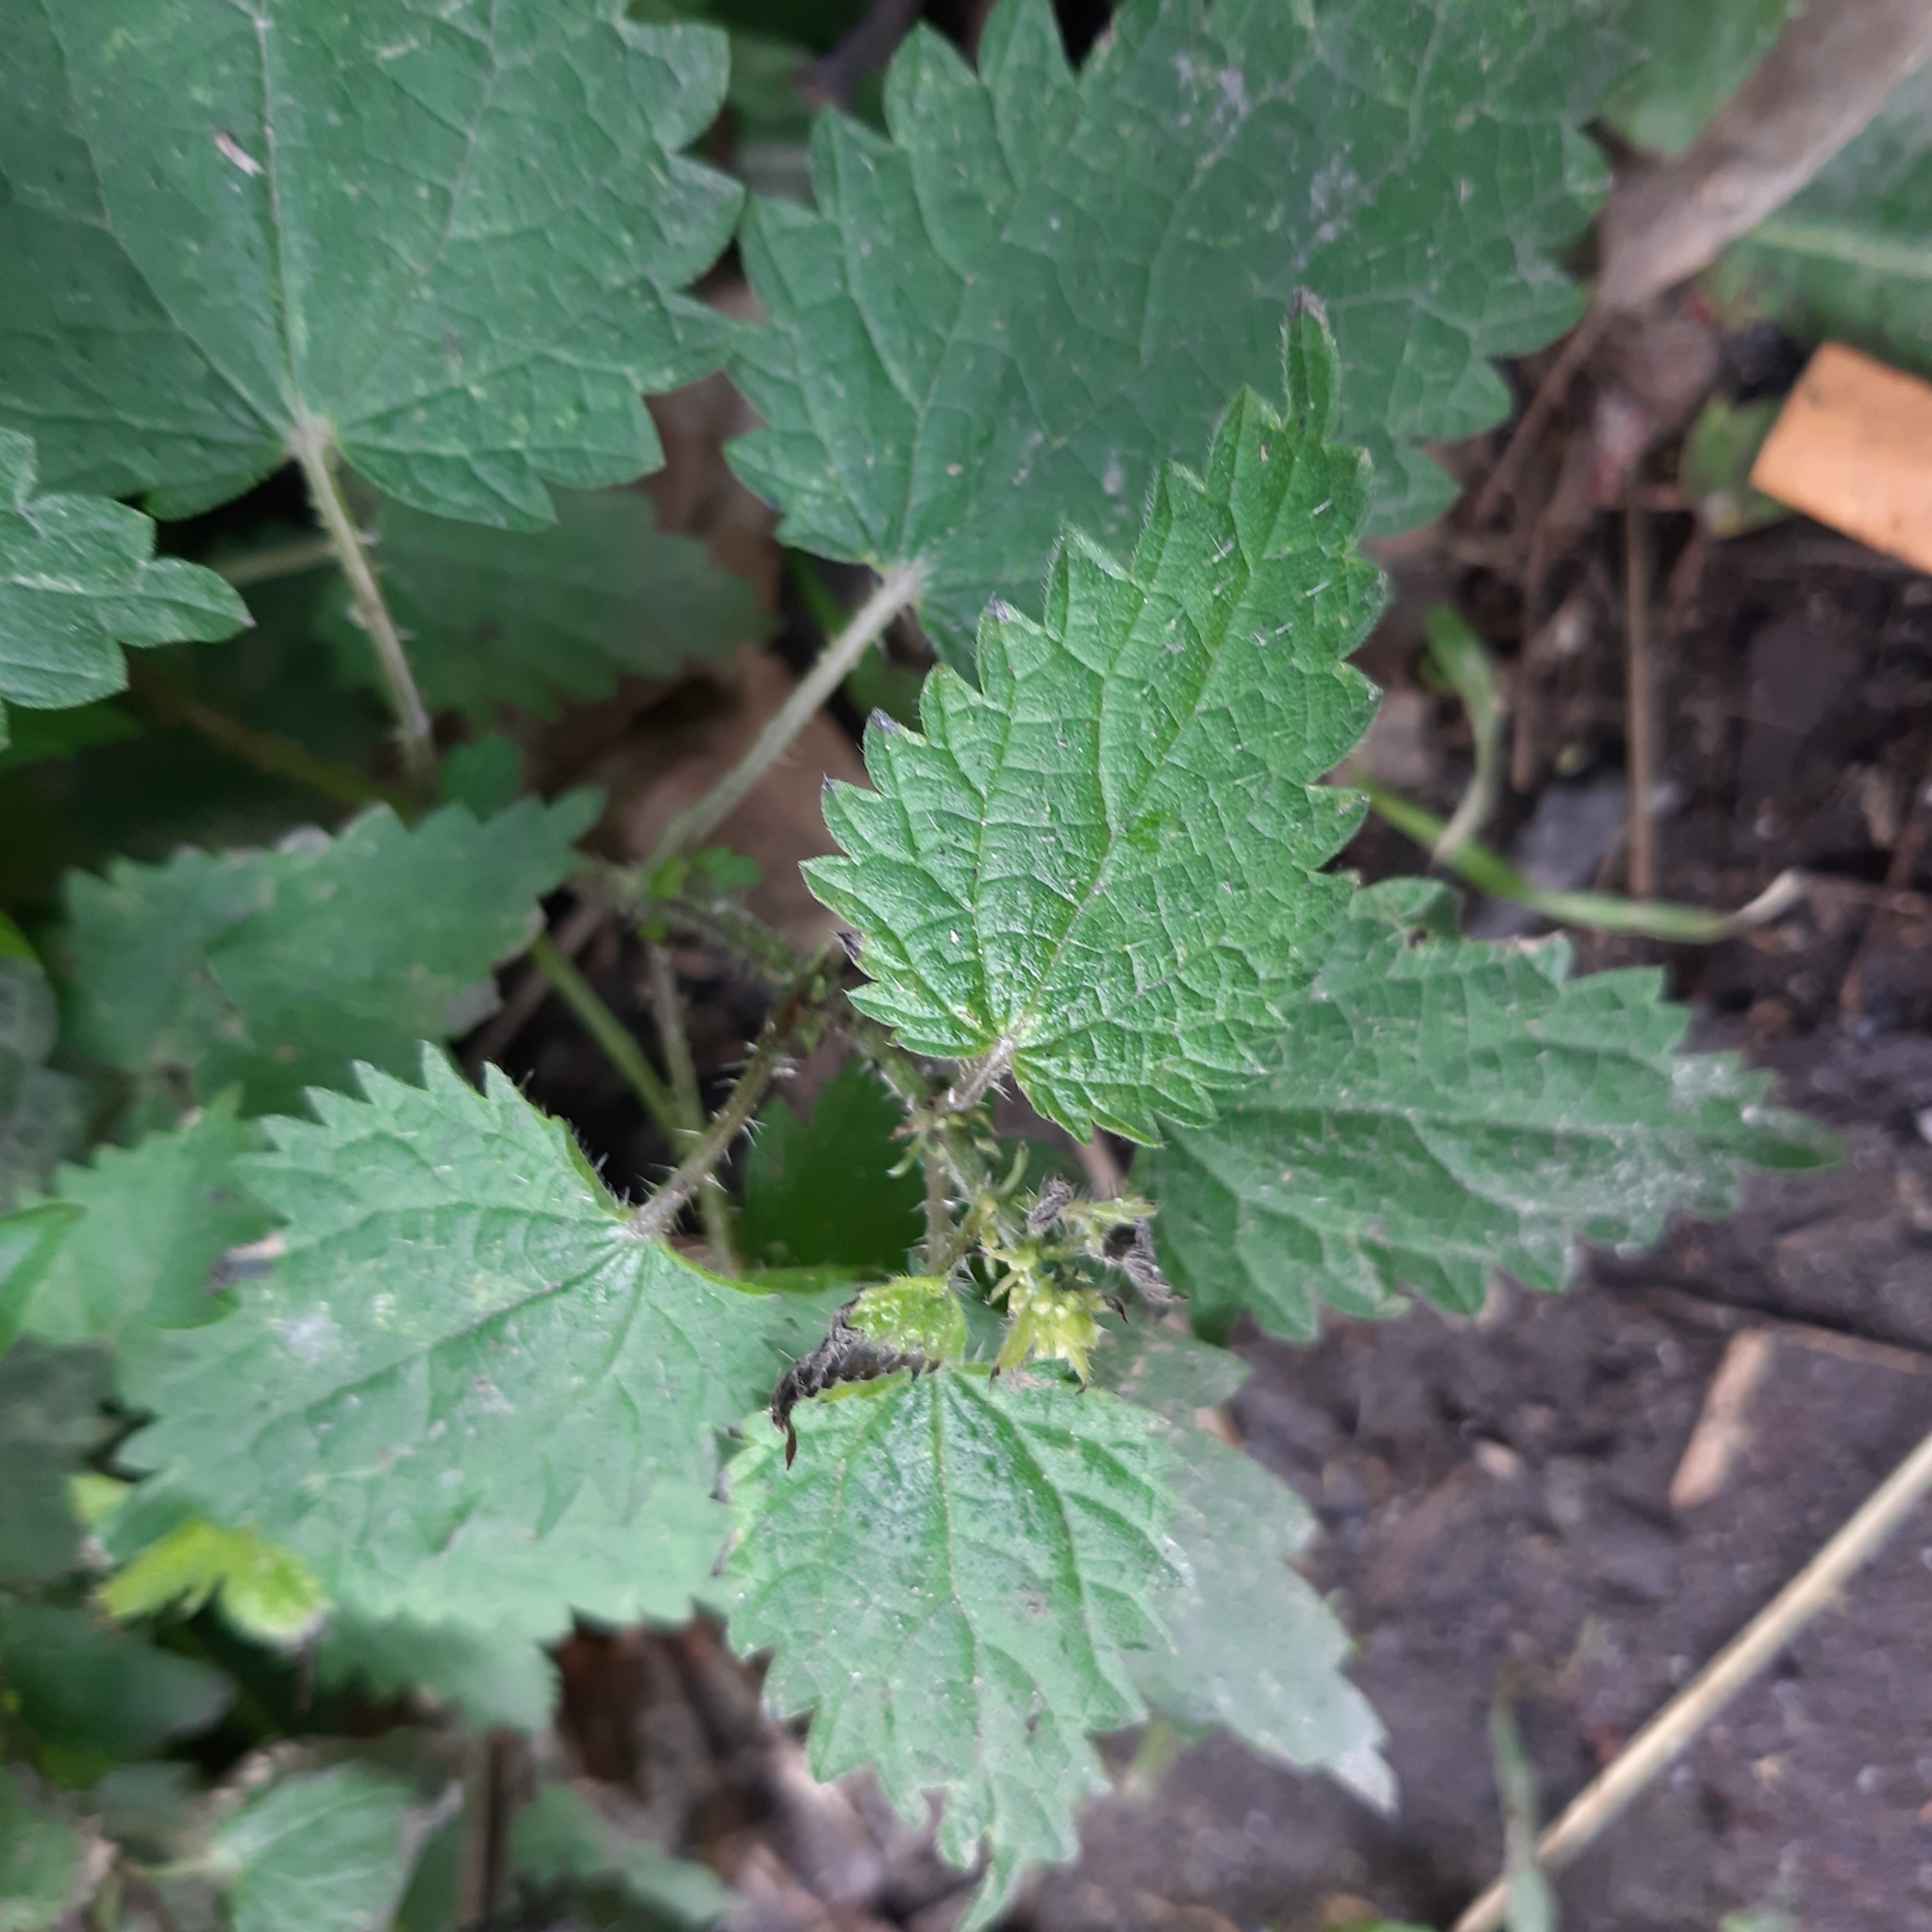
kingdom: Plantae
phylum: Tracheophyta
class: Magnoliopsida
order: Rosales
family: Urticaceae
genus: Urtica
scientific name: Urtica dioica
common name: Common nettle
